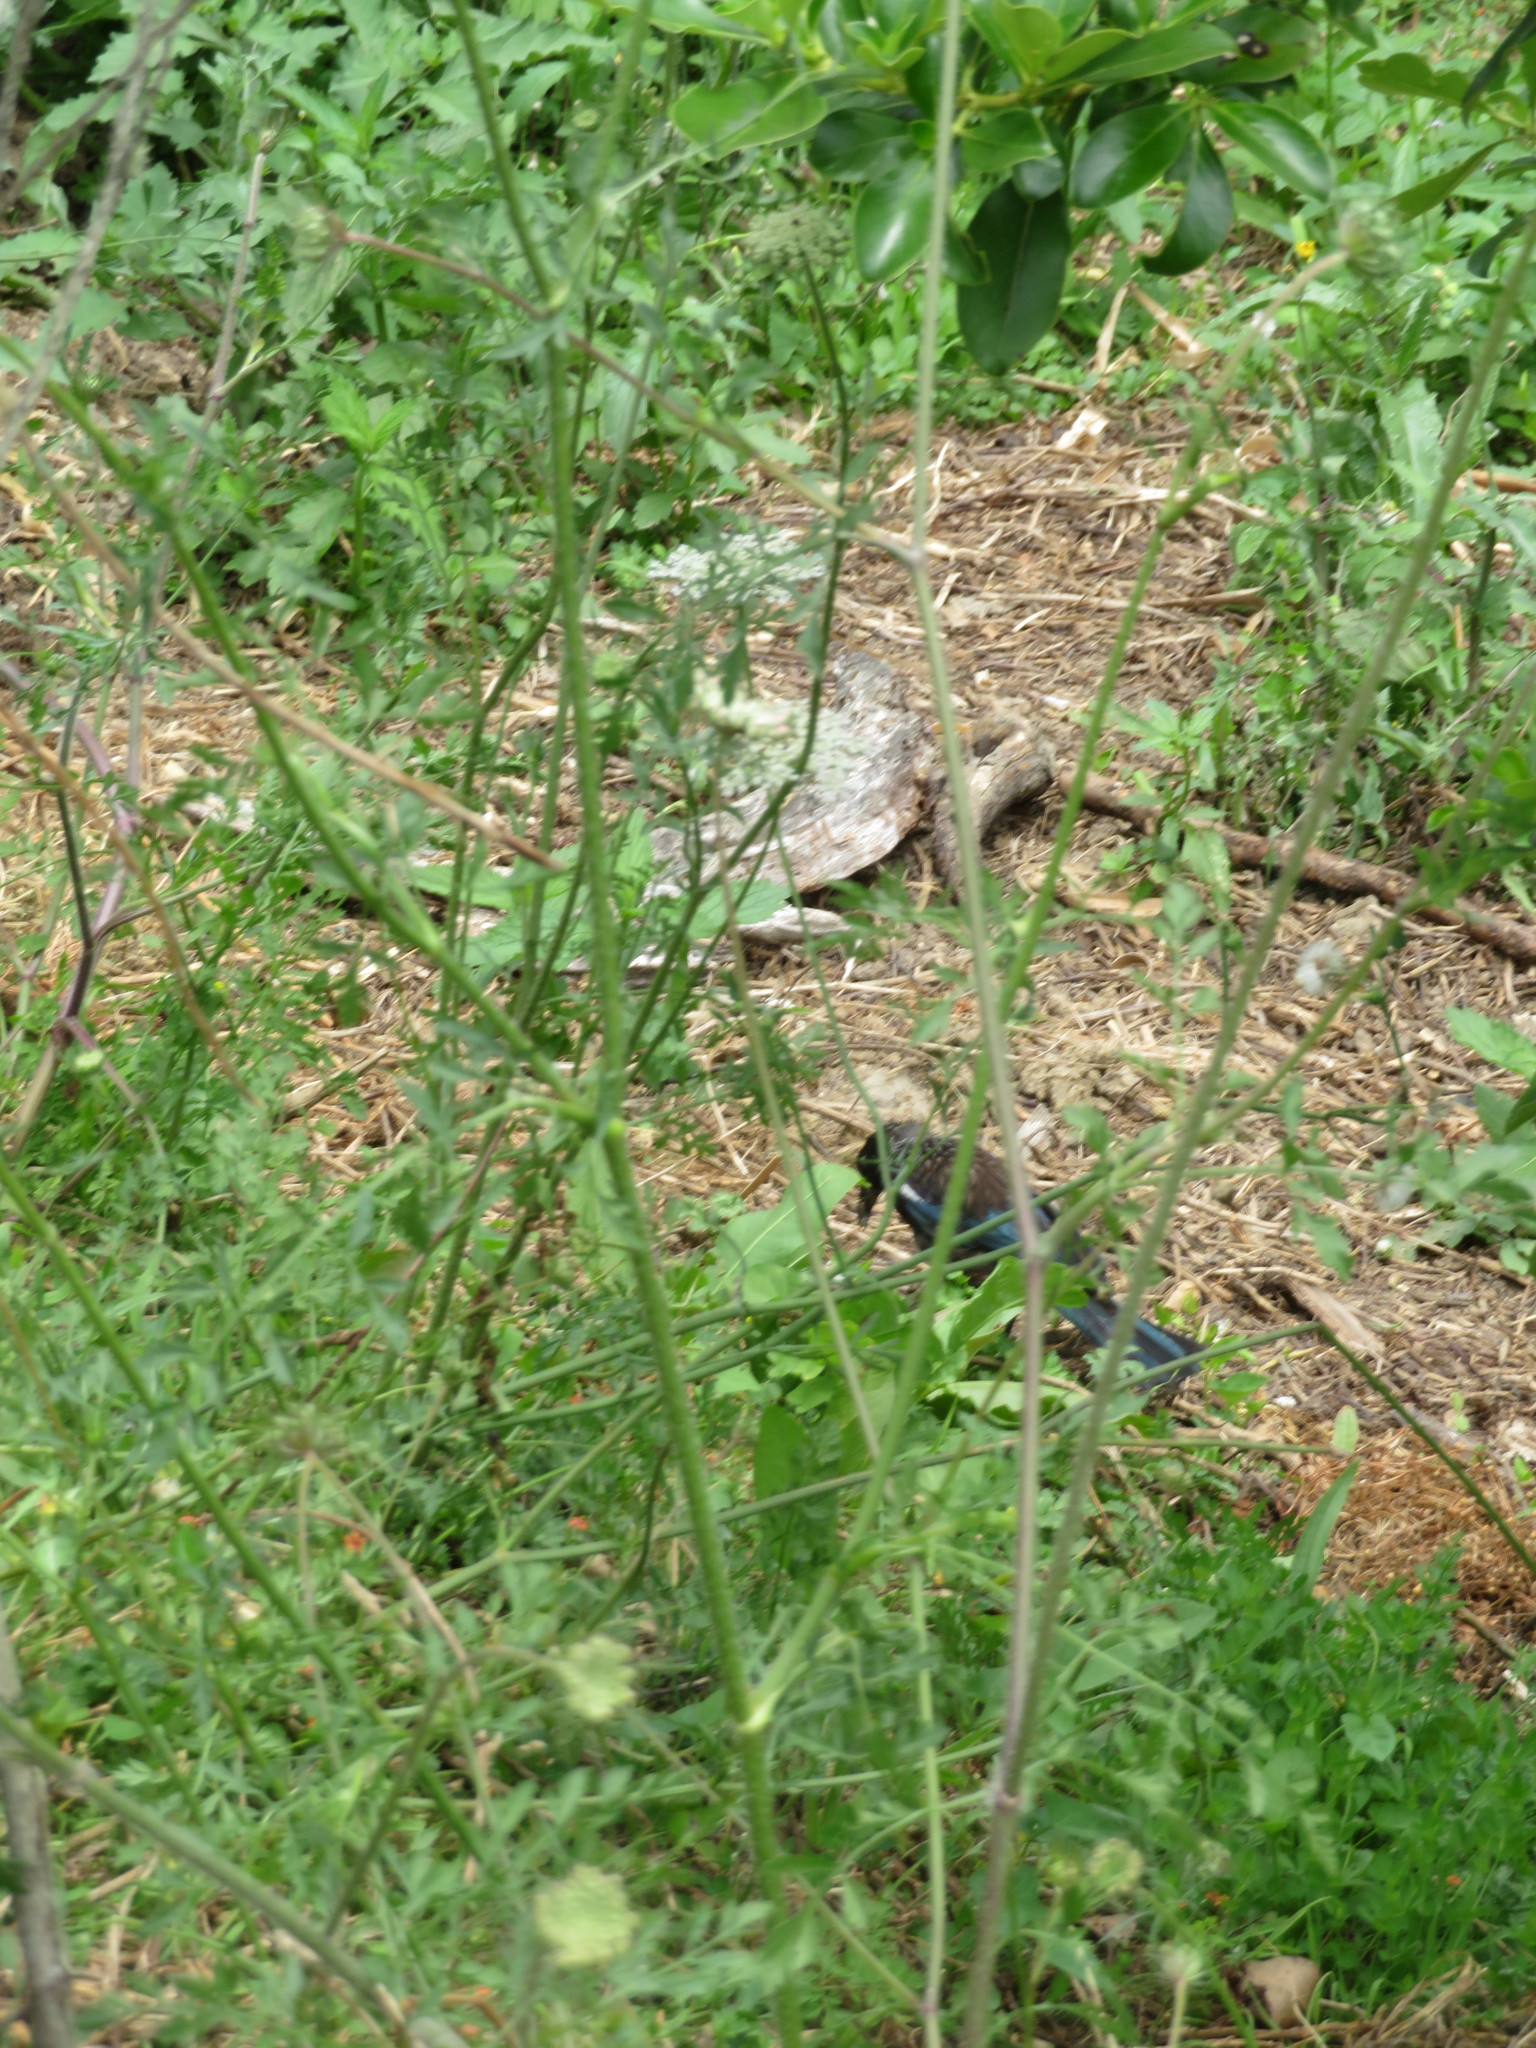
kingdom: Animalia
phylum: Chordata
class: Aves
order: Passeriformes
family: Meliphagidae
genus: Prosthemadera
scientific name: Prosthemadera novaeseelandiae
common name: Tui
